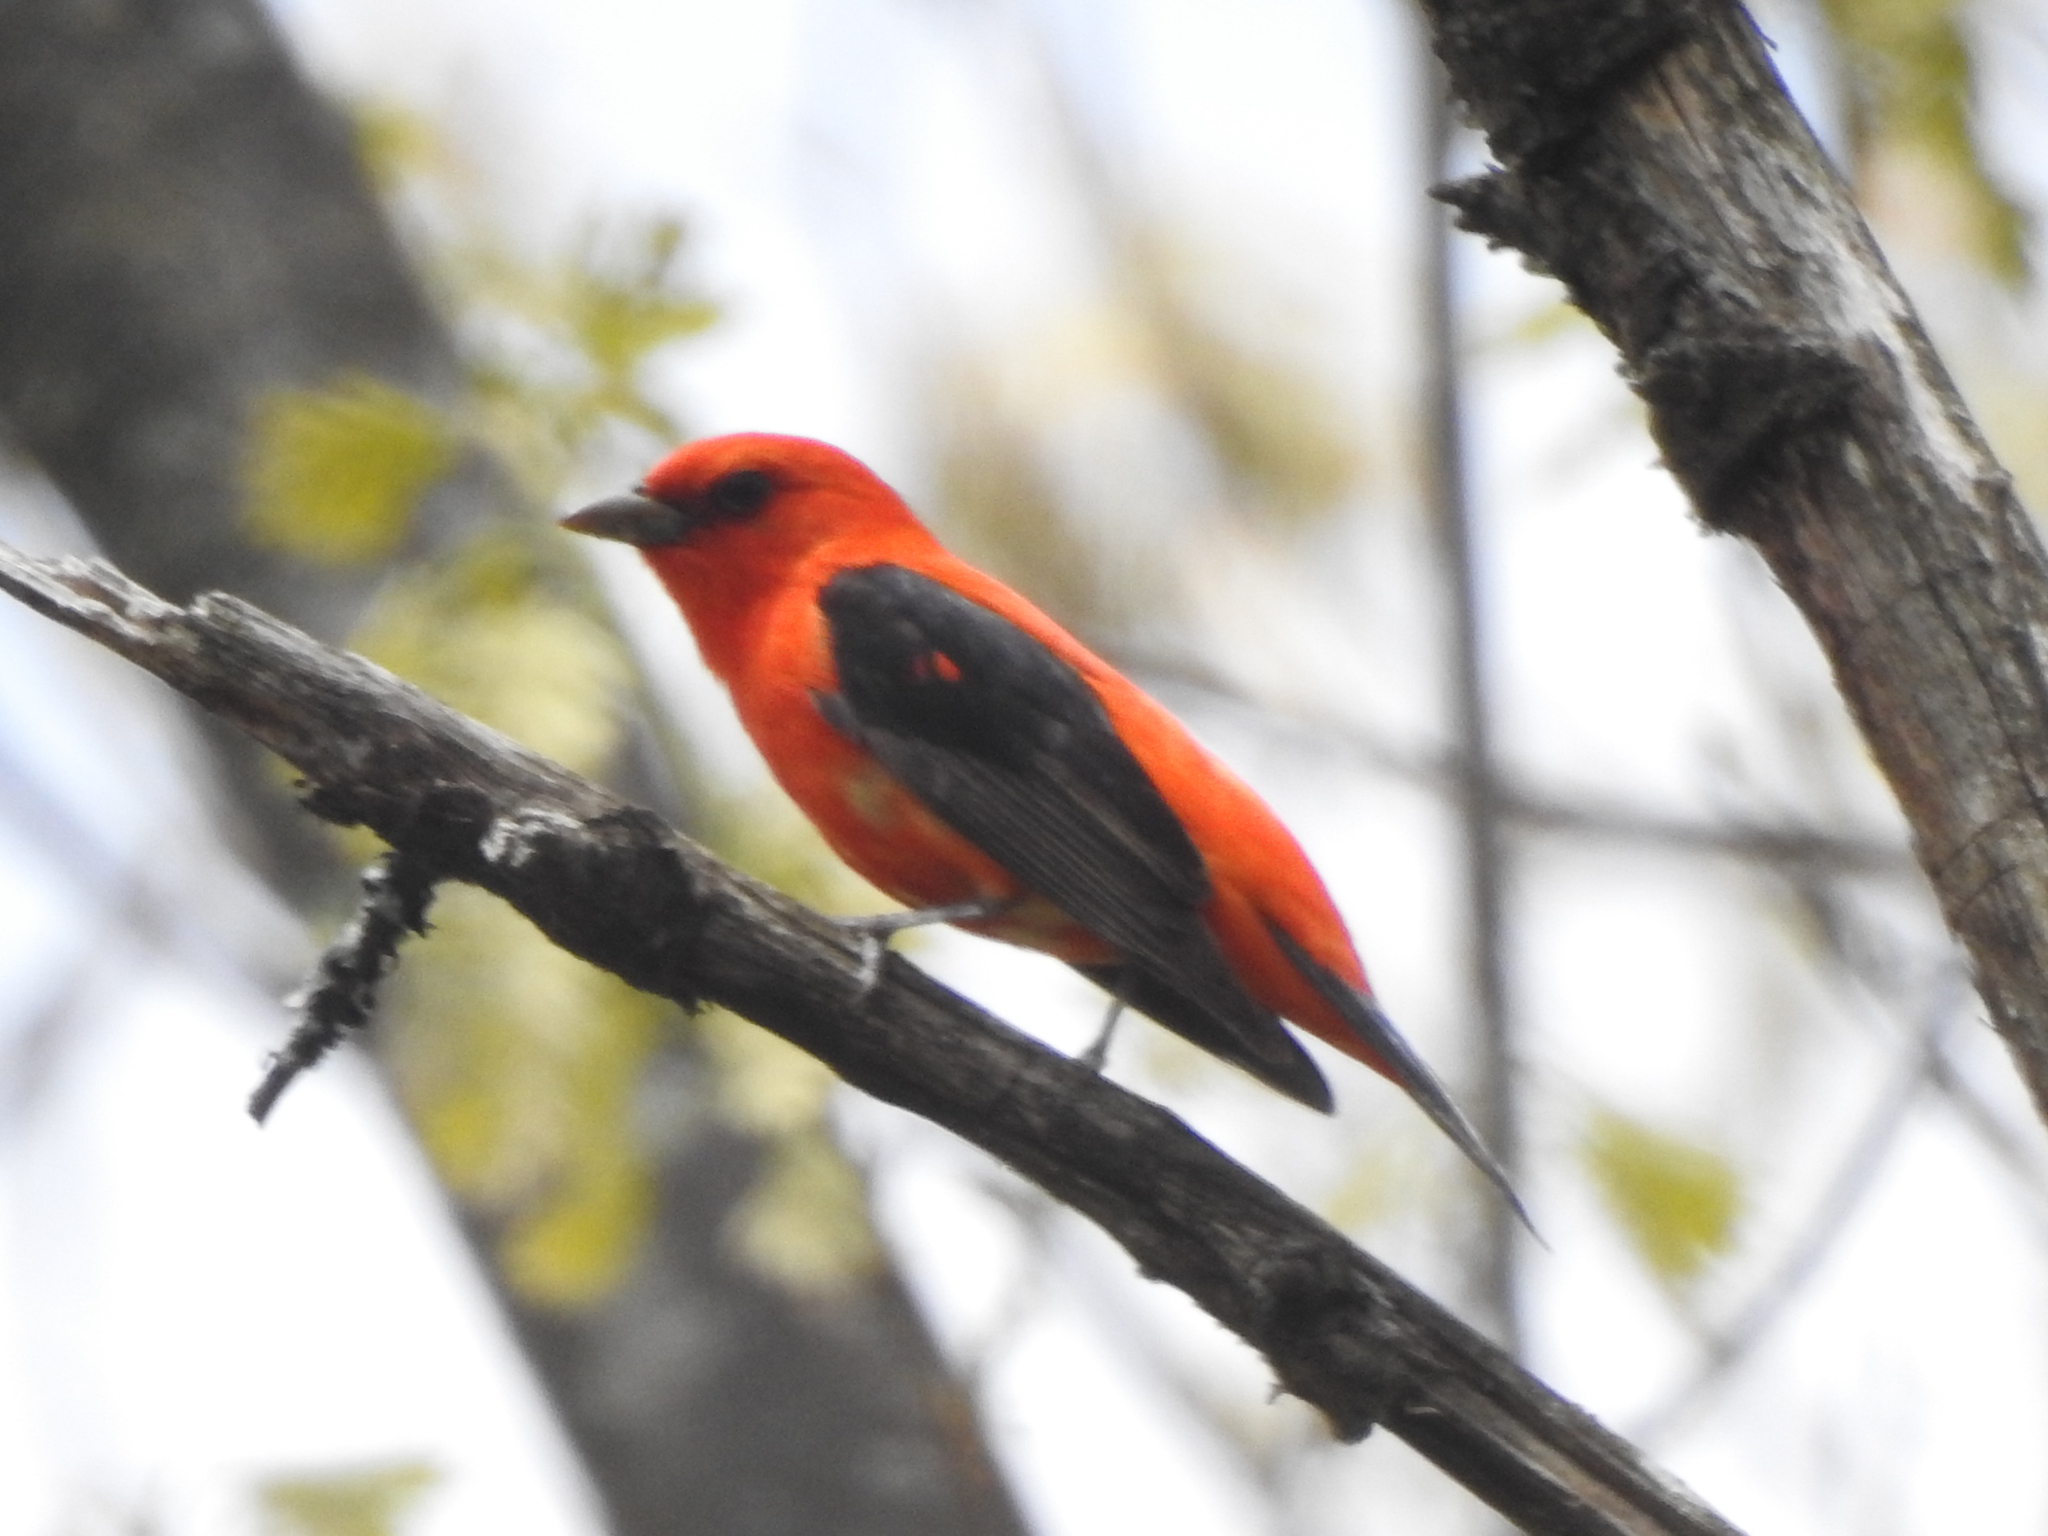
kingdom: Animalia
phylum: Chordata
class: Aves
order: Passeriformes
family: Cardinalidae
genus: Piranga
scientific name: Piranga olivacea
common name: Scarlet tanager
